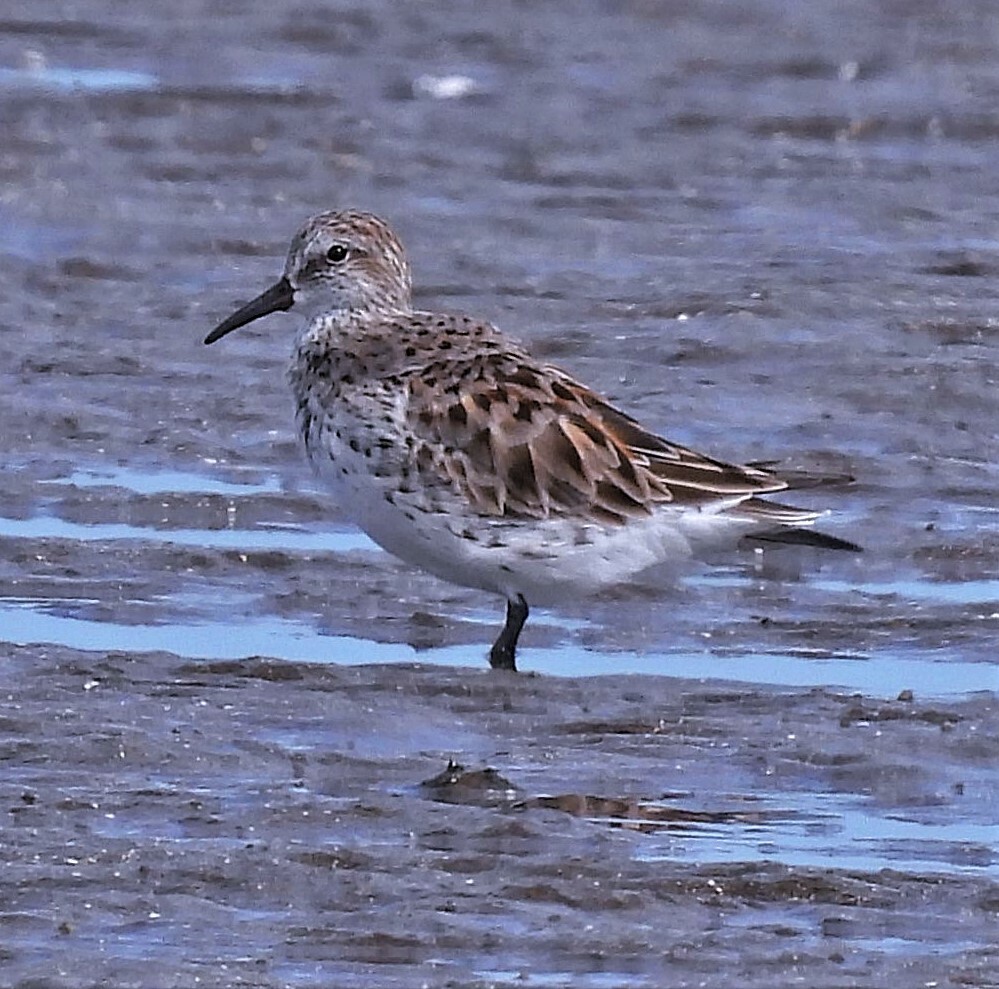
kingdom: Animalia
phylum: Chordata
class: Aves
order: Charadriiformes
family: Scolopacidae
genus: Calidris
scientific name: Calidris fuscicollis
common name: White-rumped sandpiper
